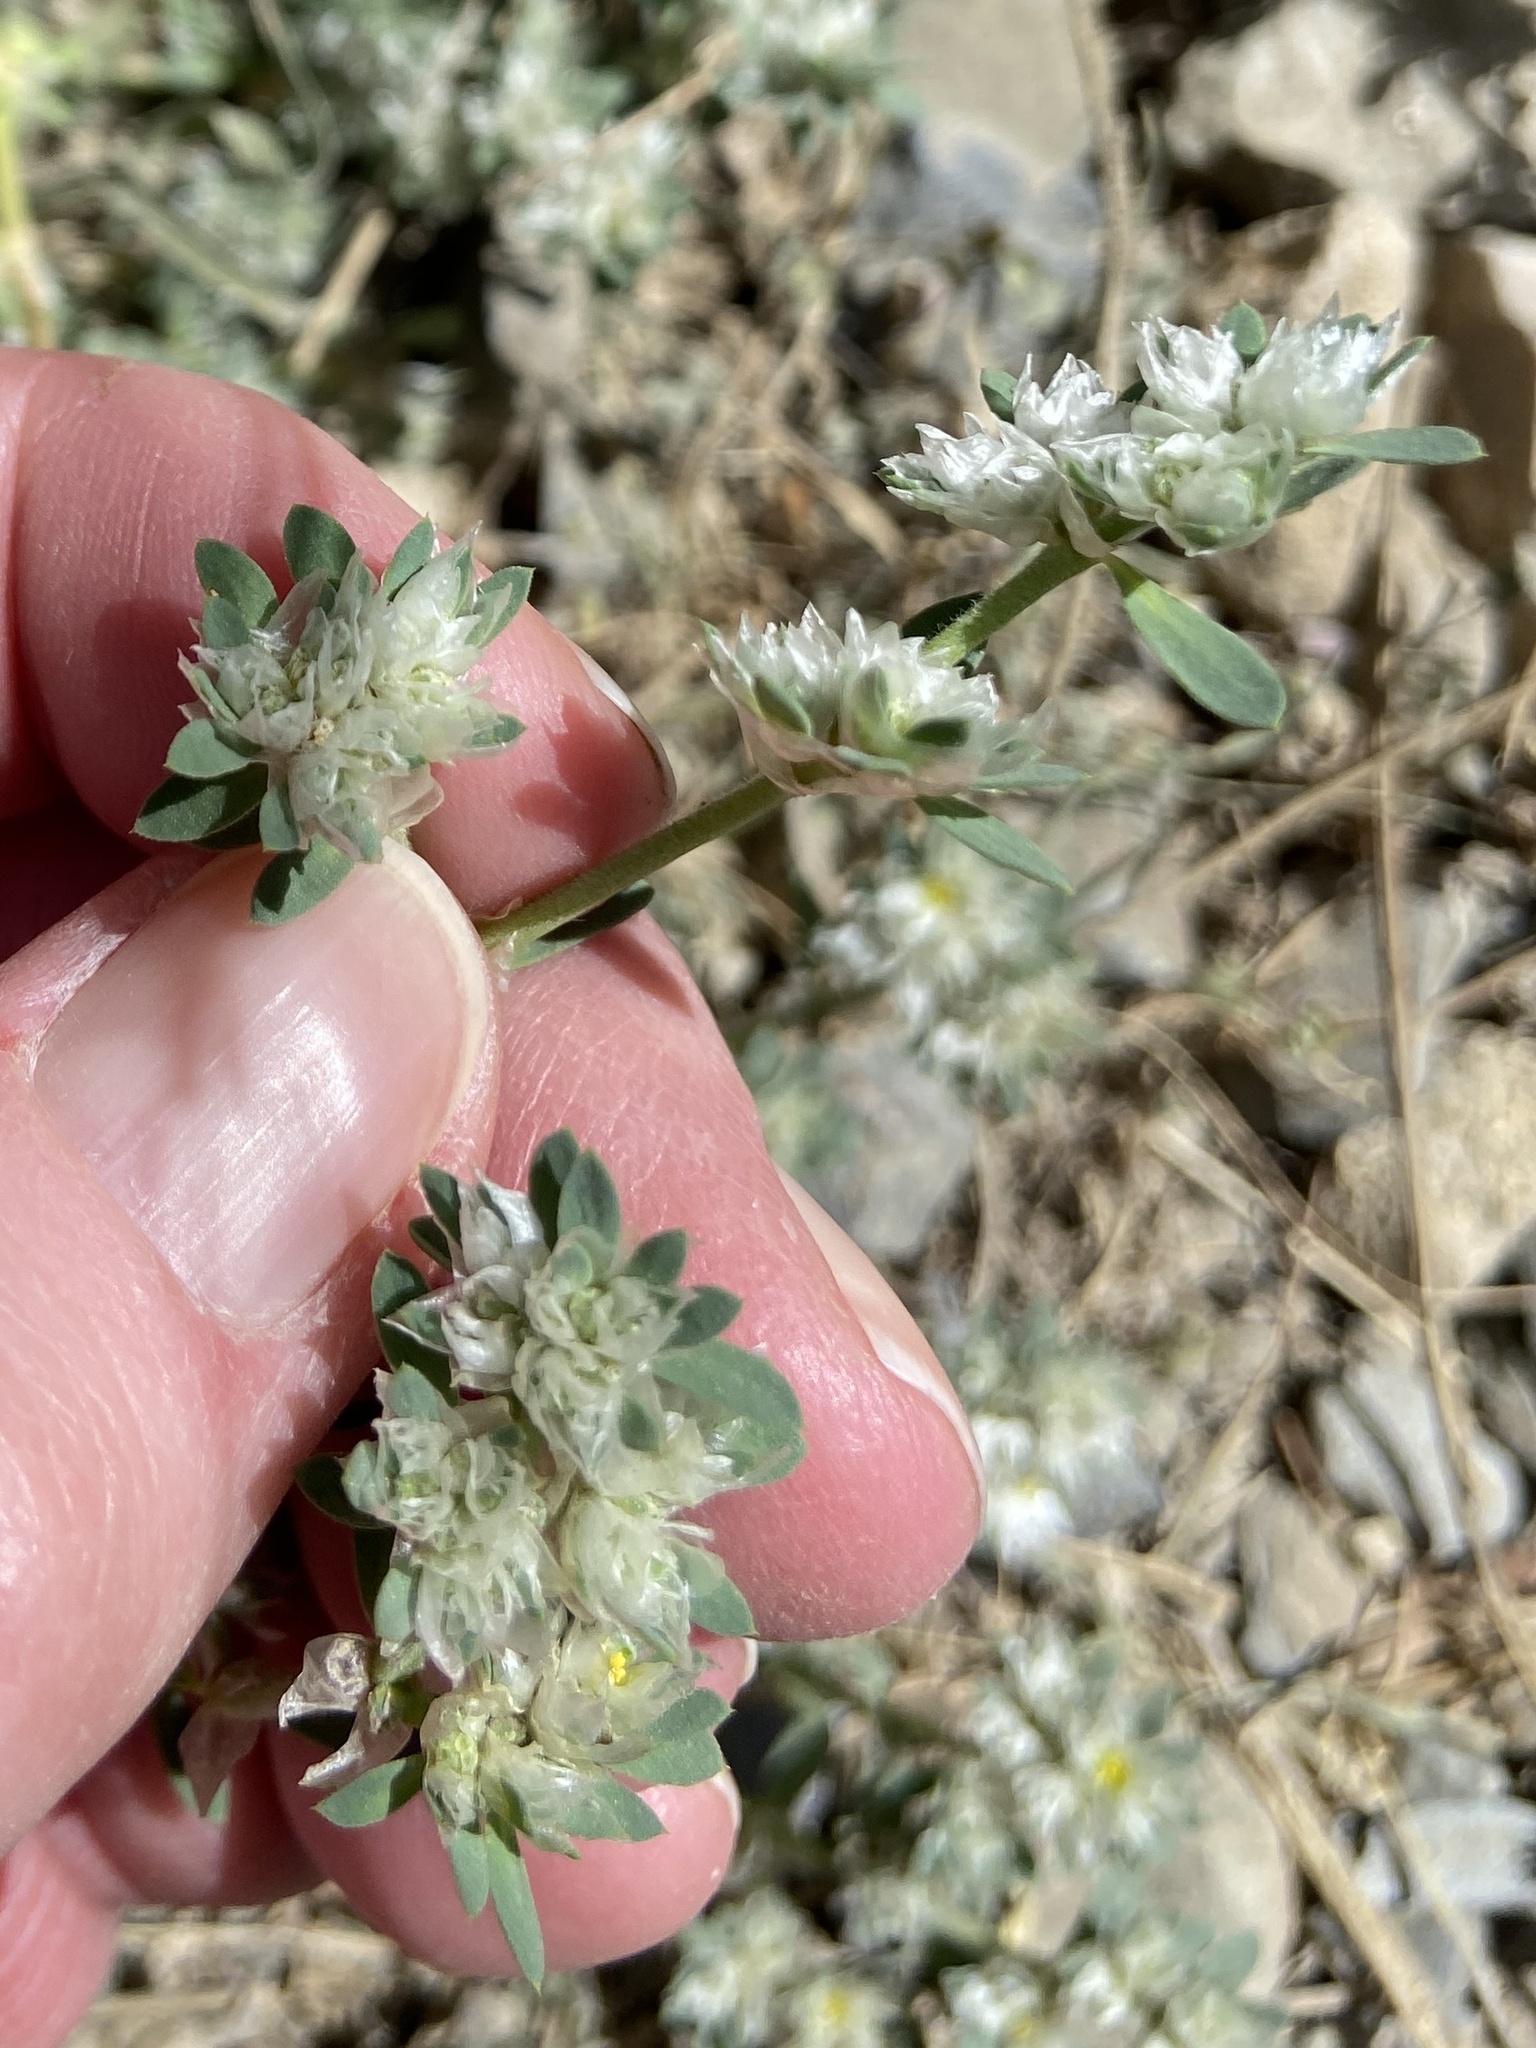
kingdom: Plantae
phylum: Tracheophyta
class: Magnoliopsida
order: Caryophyllales
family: Caryophyllaceae
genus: Paronychia
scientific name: Paronychia argentea
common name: Silver nailroot
